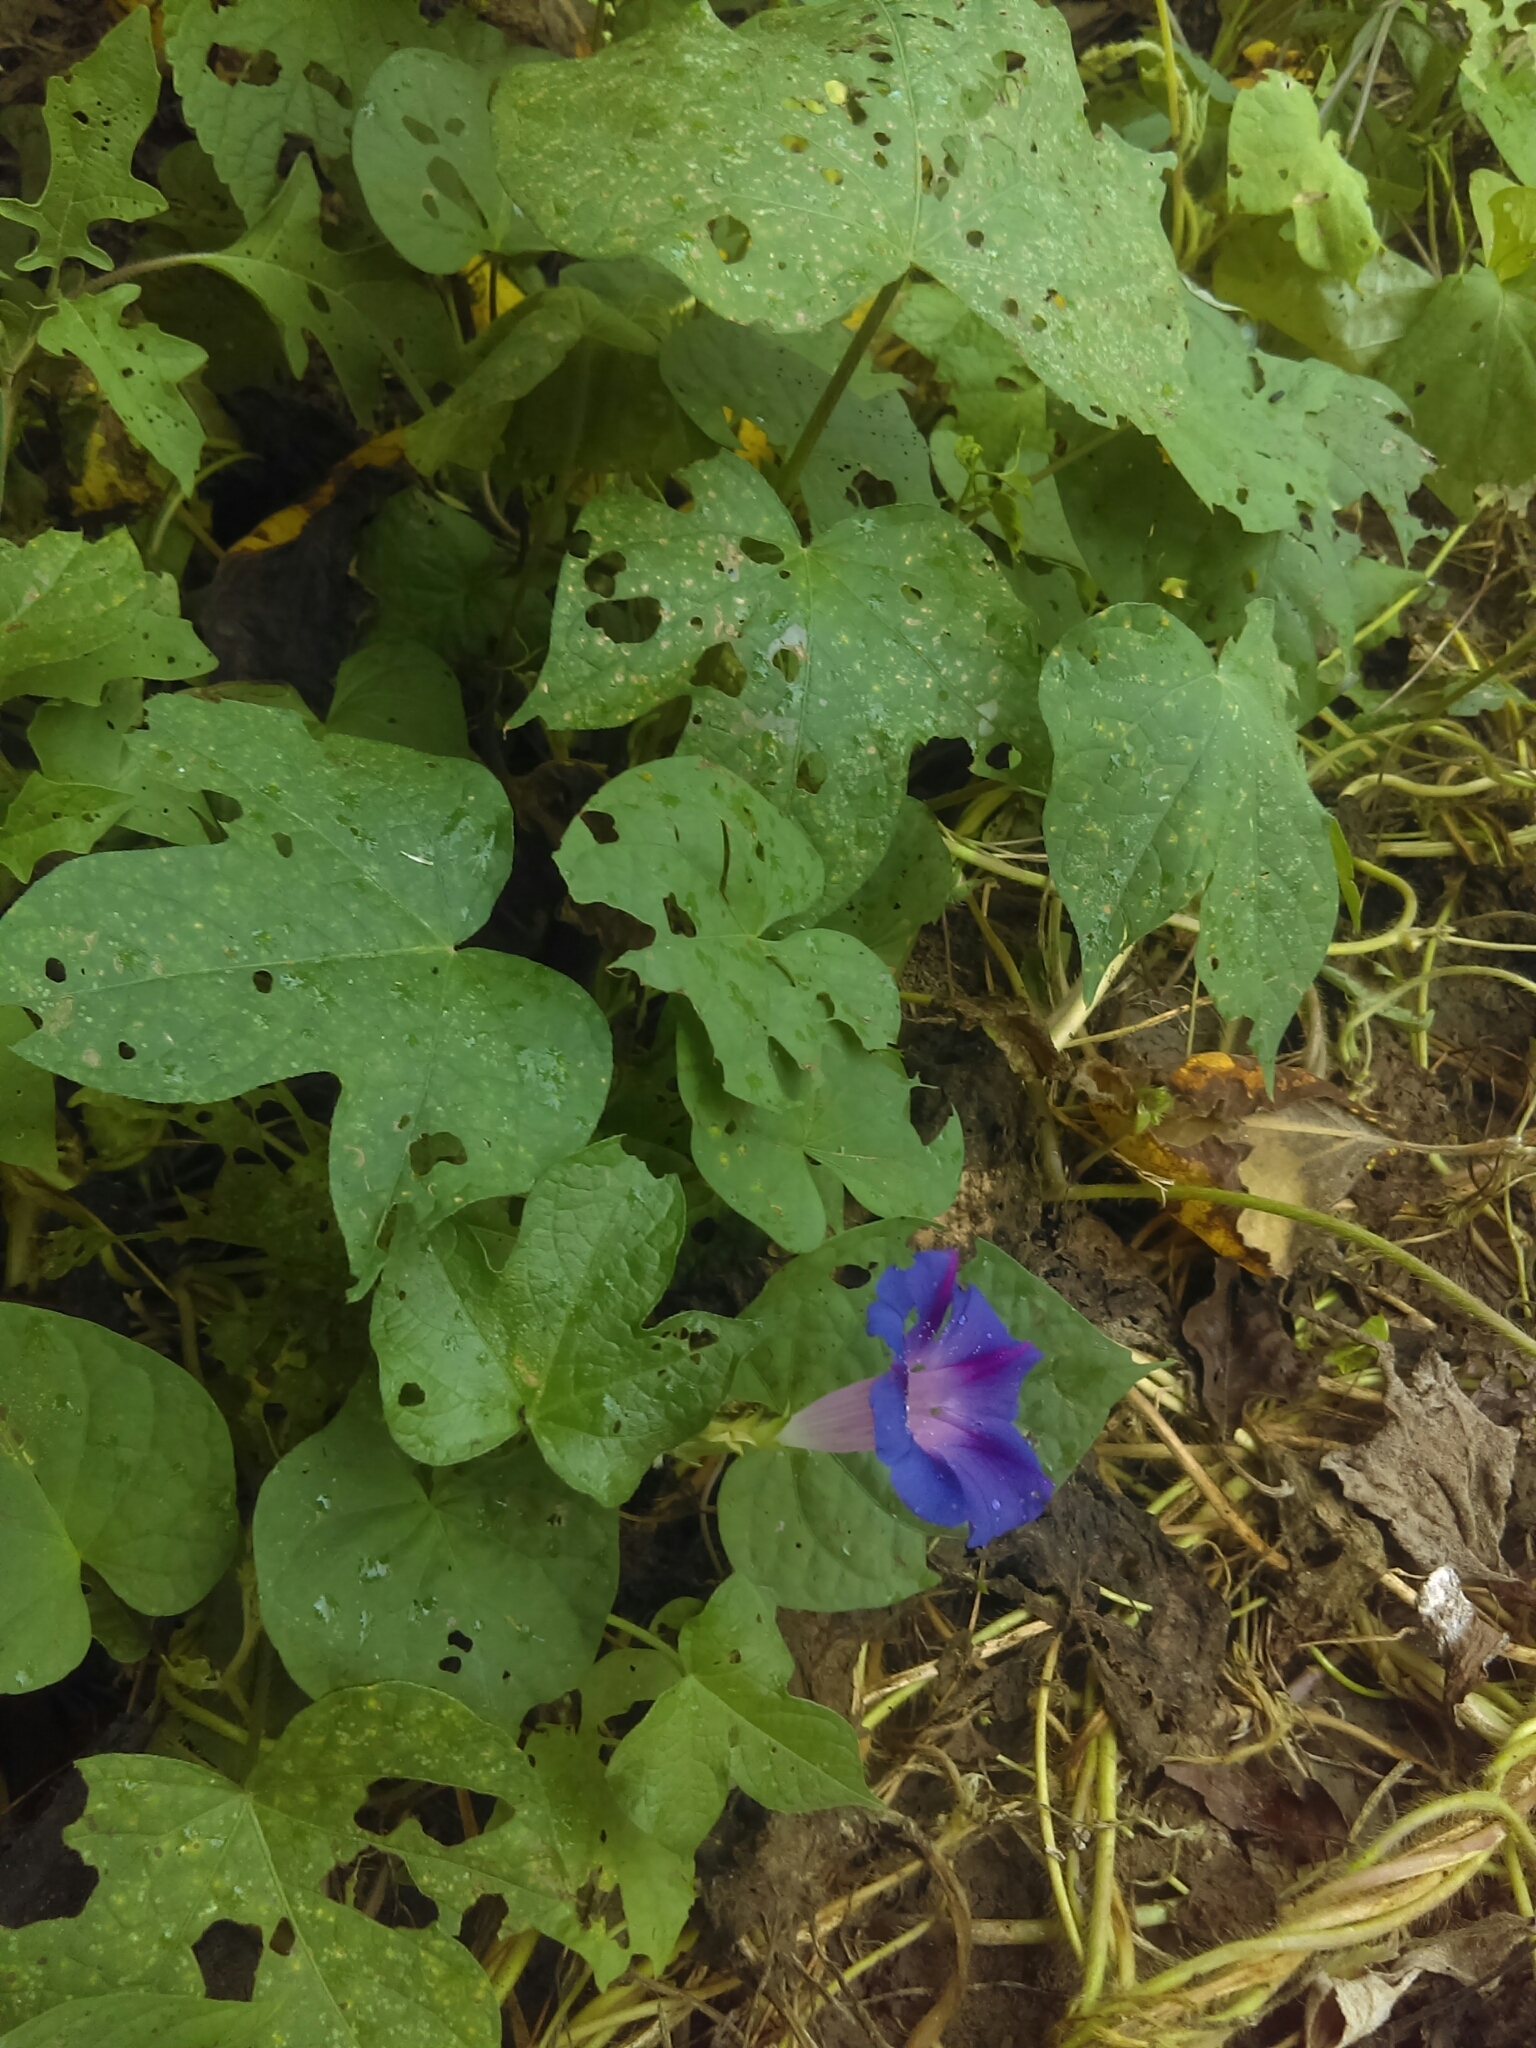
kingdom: Plantae
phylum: Tracheophyta
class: Magnoliopsida
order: Solanales
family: Convolvulaceae
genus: Ipomoea
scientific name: Ipomoea purpurea
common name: Common morning-glory
